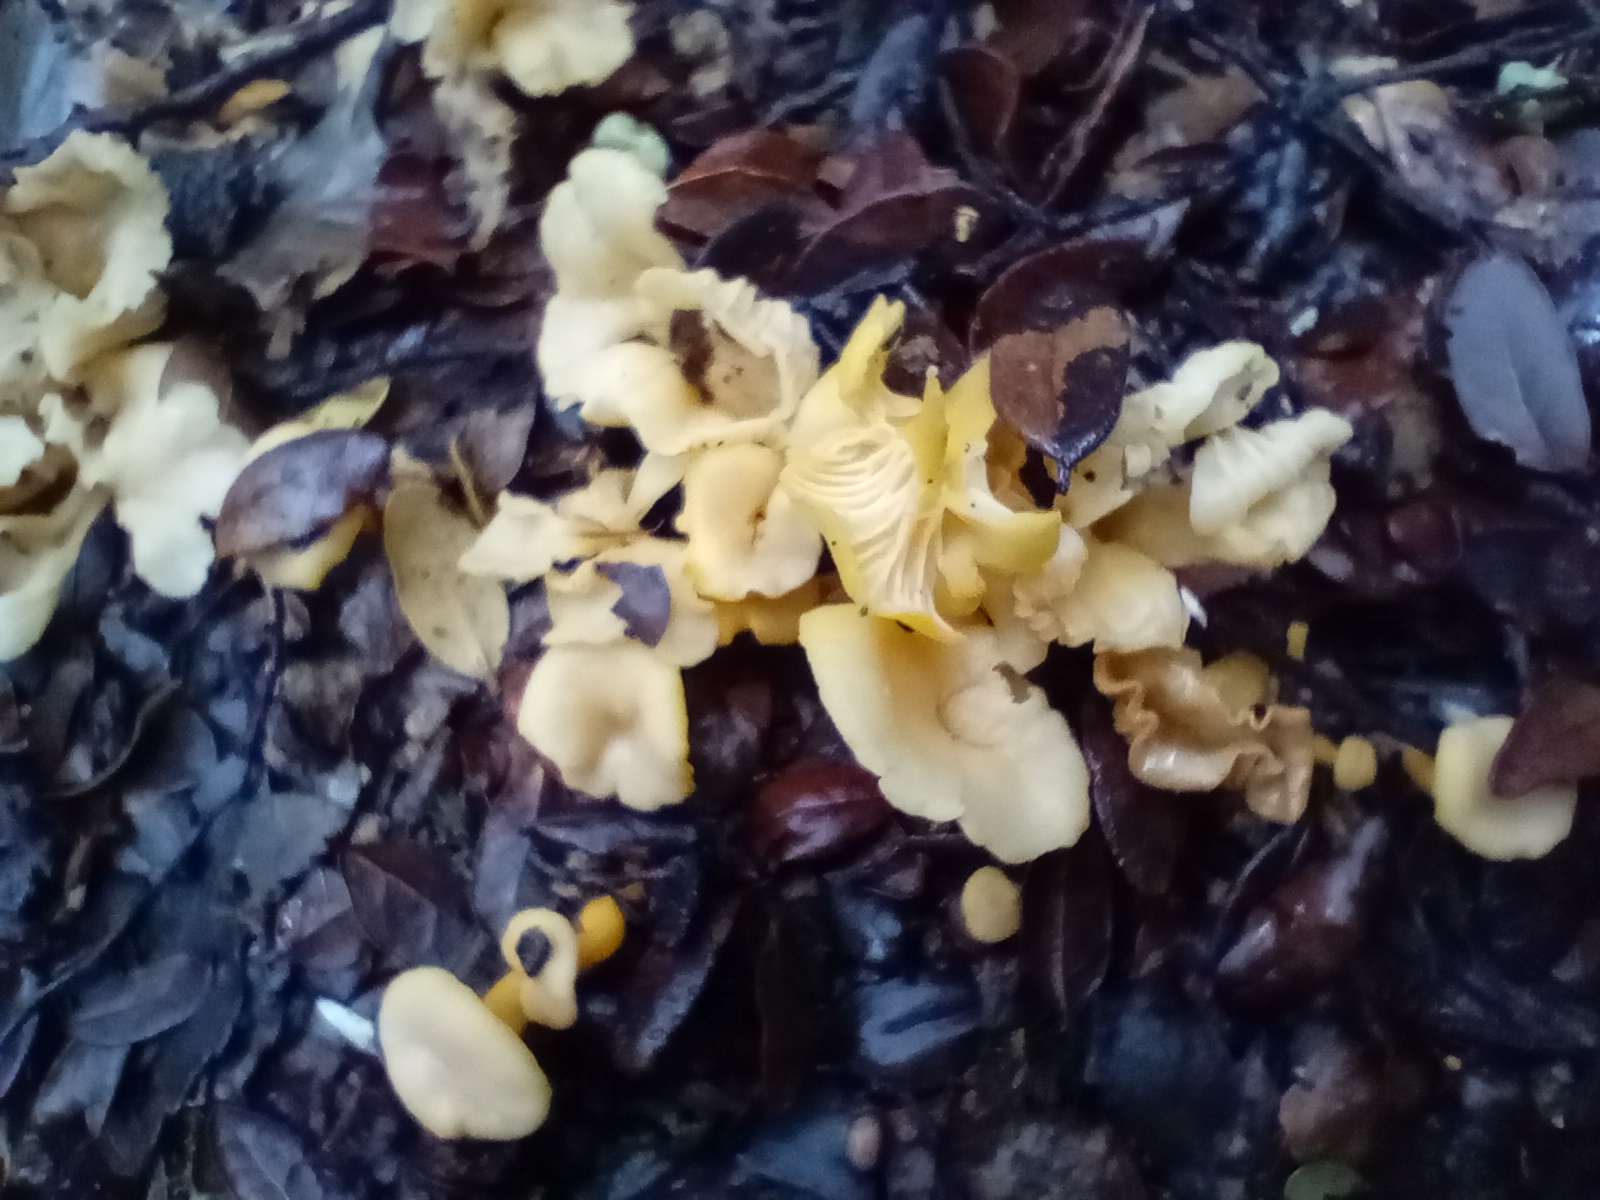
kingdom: Fungi
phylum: Basidiomycota
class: Agaricomycetes
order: Cantharellales
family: Hydnaceae
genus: Cantharellus
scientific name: Cantharellus wellingtonensis
